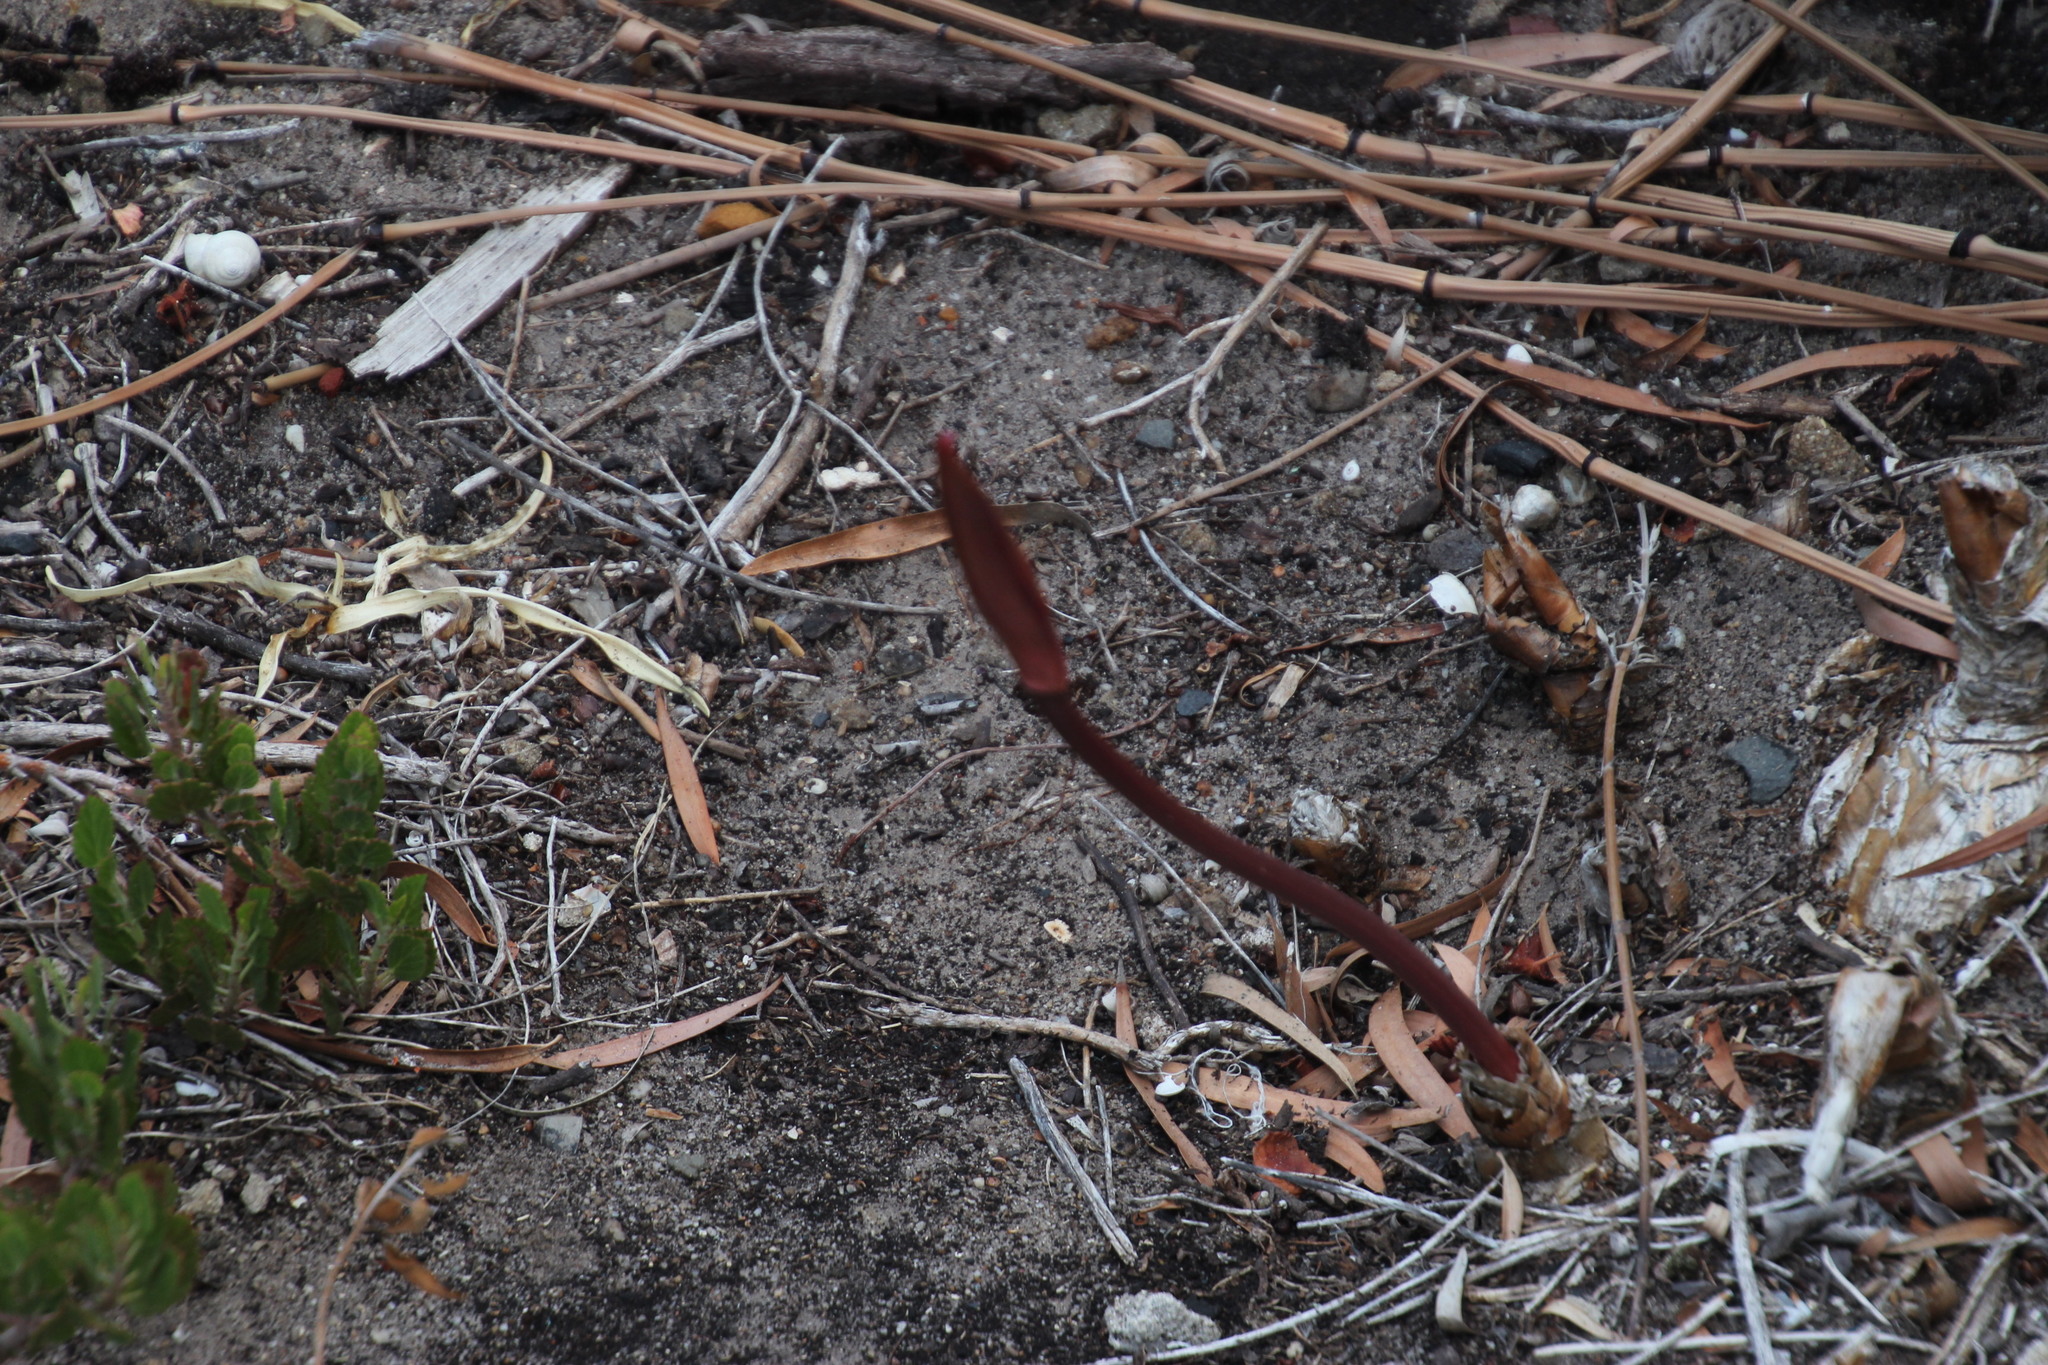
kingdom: Plantae
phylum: Tracheophyta
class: Liliopsida
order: Asparagales
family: Amaryllidaceae
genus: Amaryllis
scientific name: Amaryllis belladonna
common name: Jersey lily
